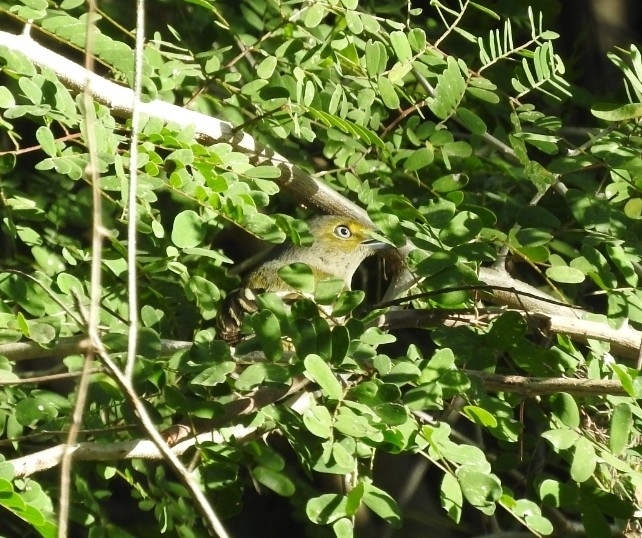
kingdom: Animalia
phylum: Chordata
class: Aves
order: Passeriformes
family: Vireonidae
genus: Vireo
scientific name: Vireo griseus
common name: White-eyed vireo
